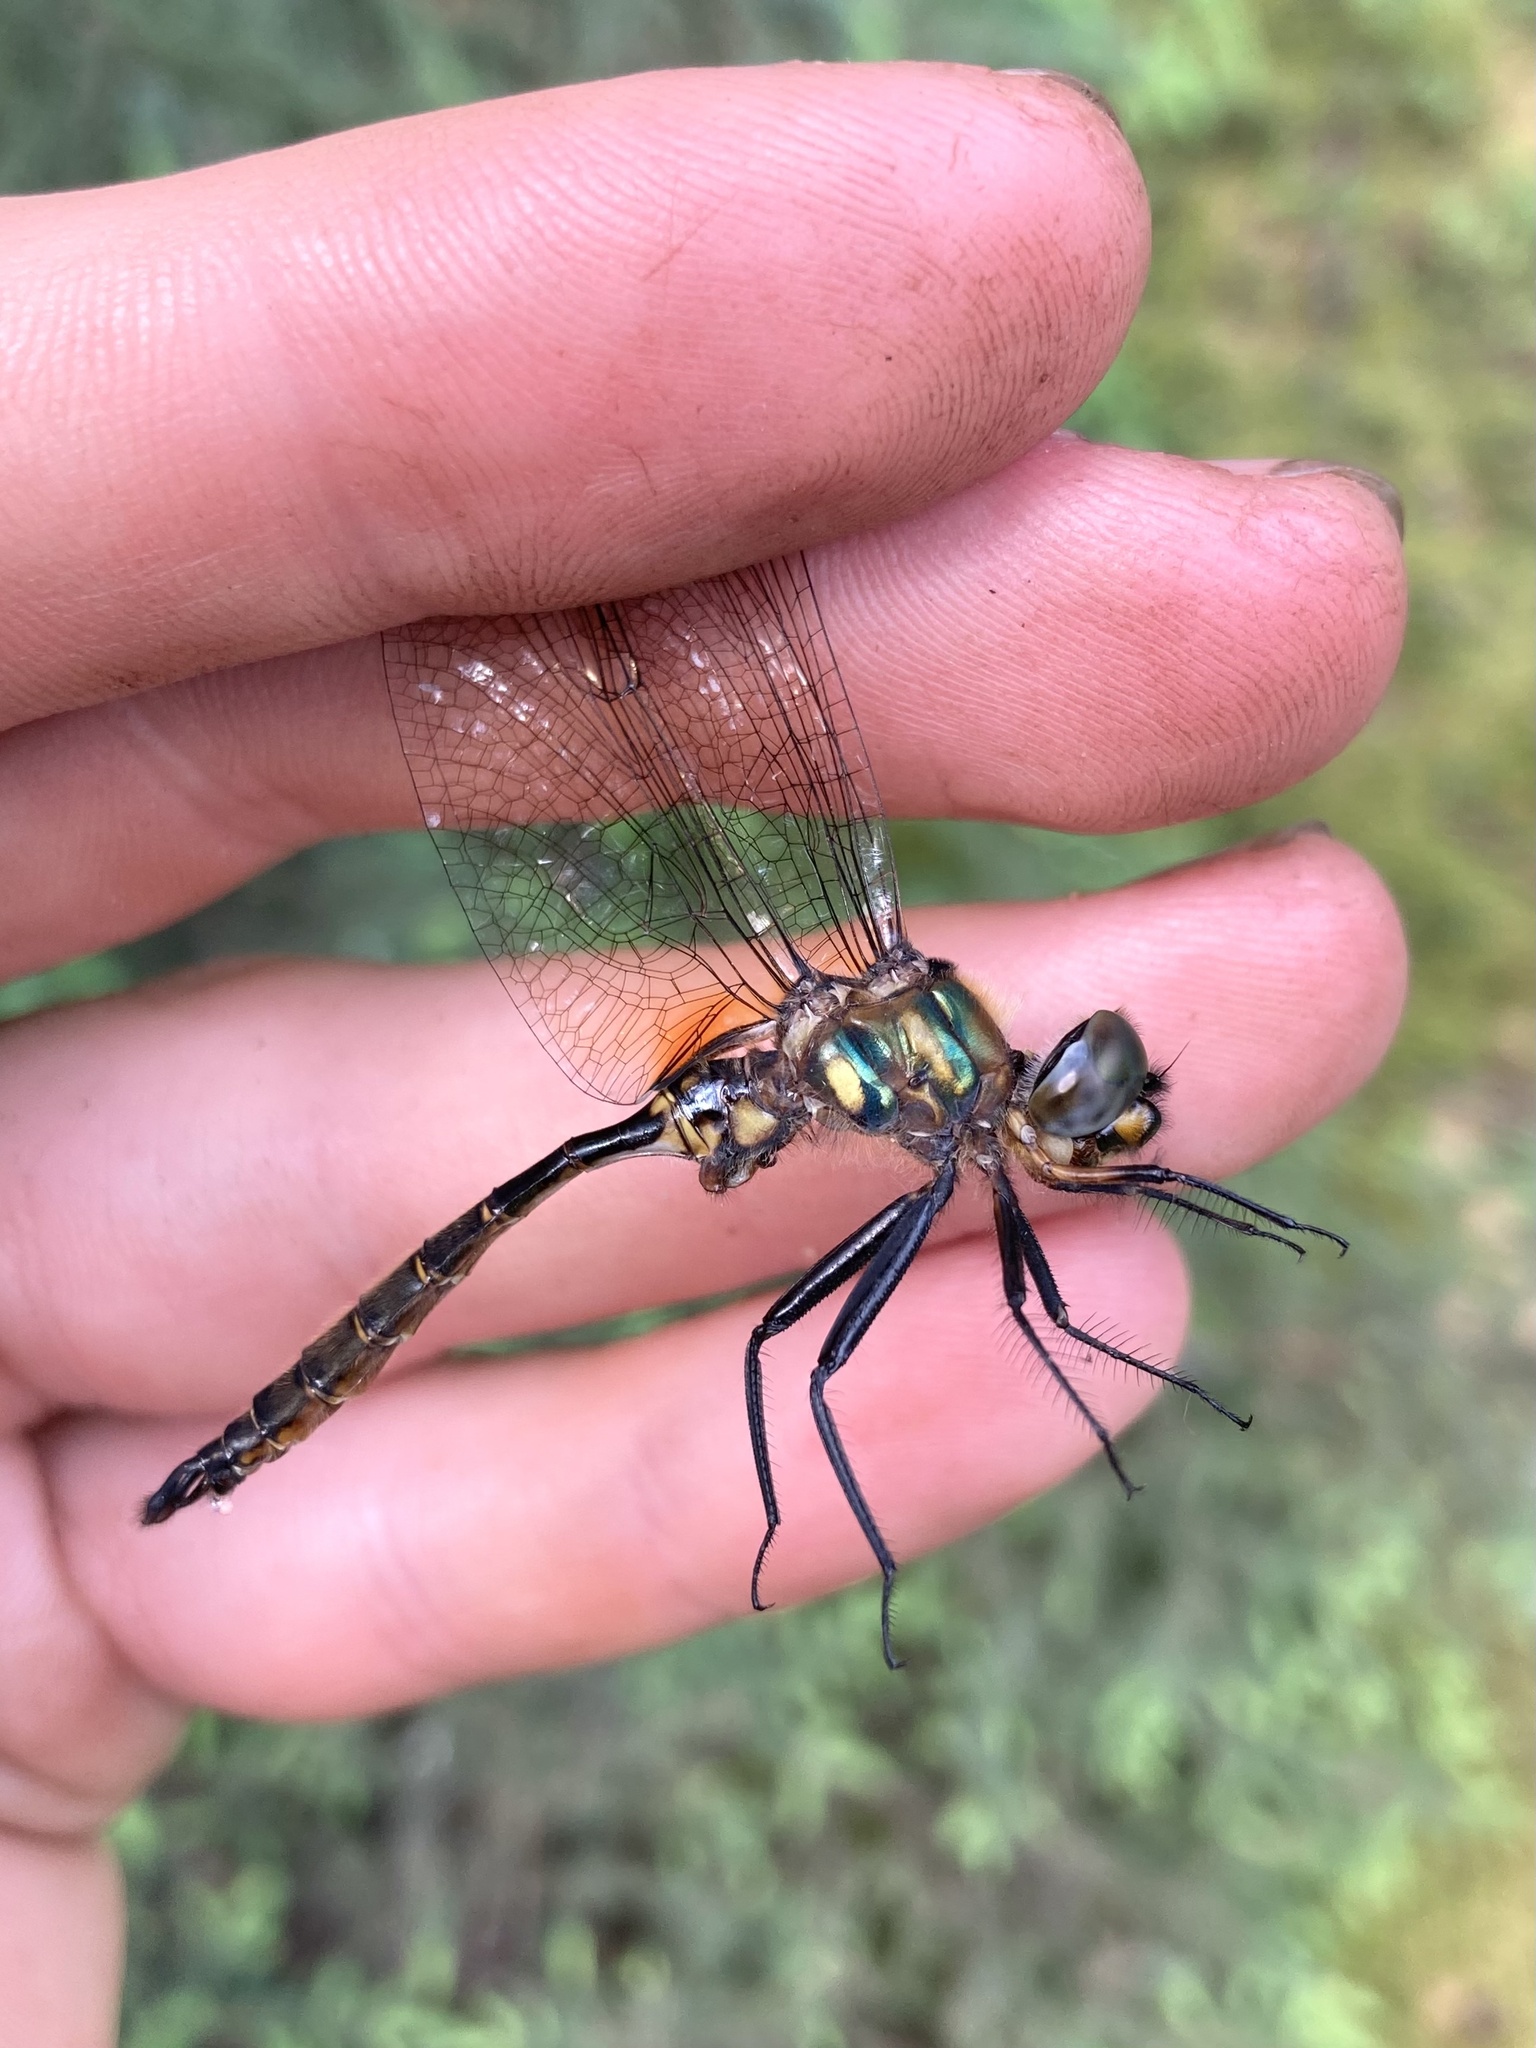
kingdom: Animalia
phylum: Arthropoda
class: Insecta
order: Odonata
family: Corduliidae
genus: Somatochlora
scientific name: Somatochlora walshii
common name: Brush-tipped emerald
